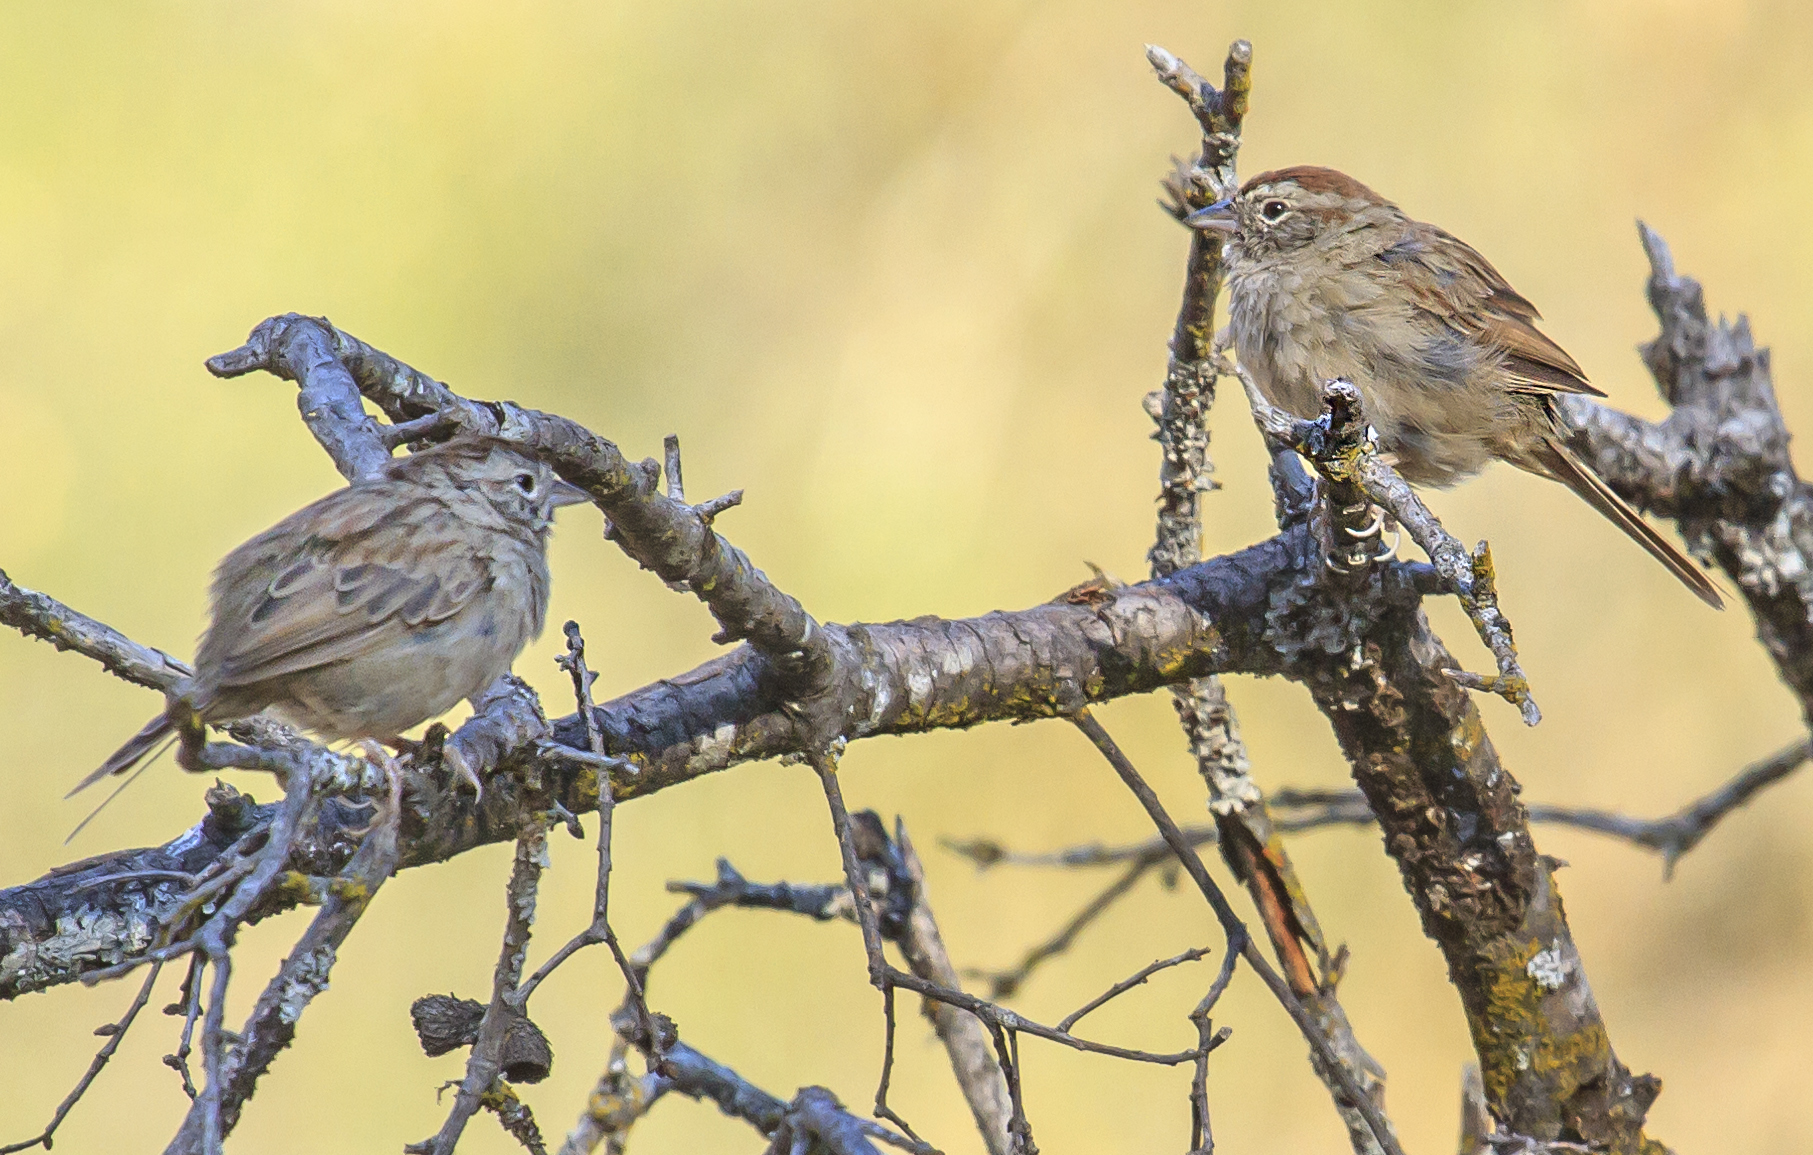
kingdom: Animalia
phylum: Chordata
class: Aves
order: Passeriformes
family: Passerellidae
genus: Aimophila
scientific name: Aimophila ruficeps
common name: Rufous-crowned sparrow
